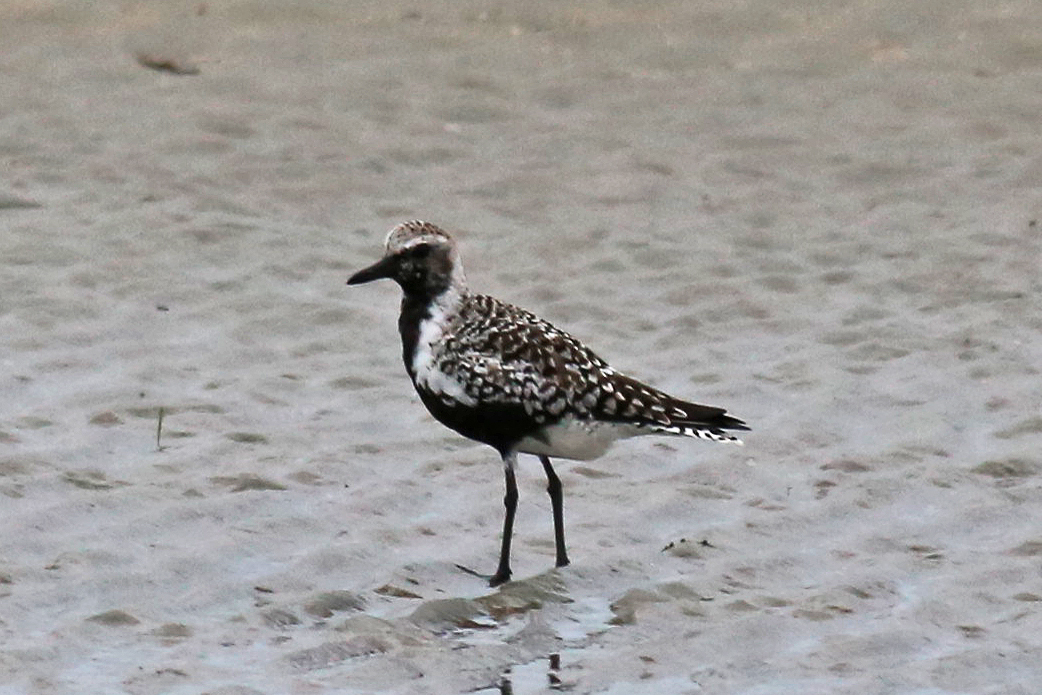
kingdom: Animalia
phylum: Chordata
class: Aves
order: Charadriiformes
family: Charadriidae
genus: Pluvialis
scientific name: Pluvialis squatarola
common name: Grey plover
